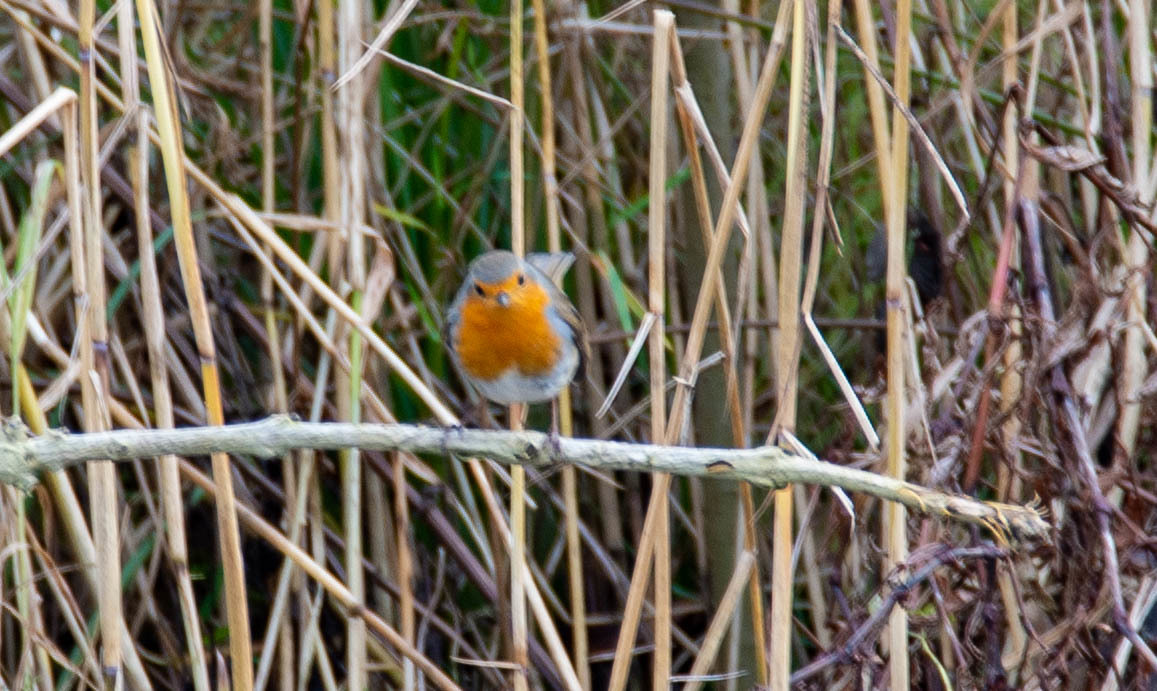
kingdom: Animalia
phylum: Chordata
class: Aves
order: Passeriformes
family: Muscicapidae
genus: Erithacus
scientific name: Erithacus rubecula
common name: European robin
